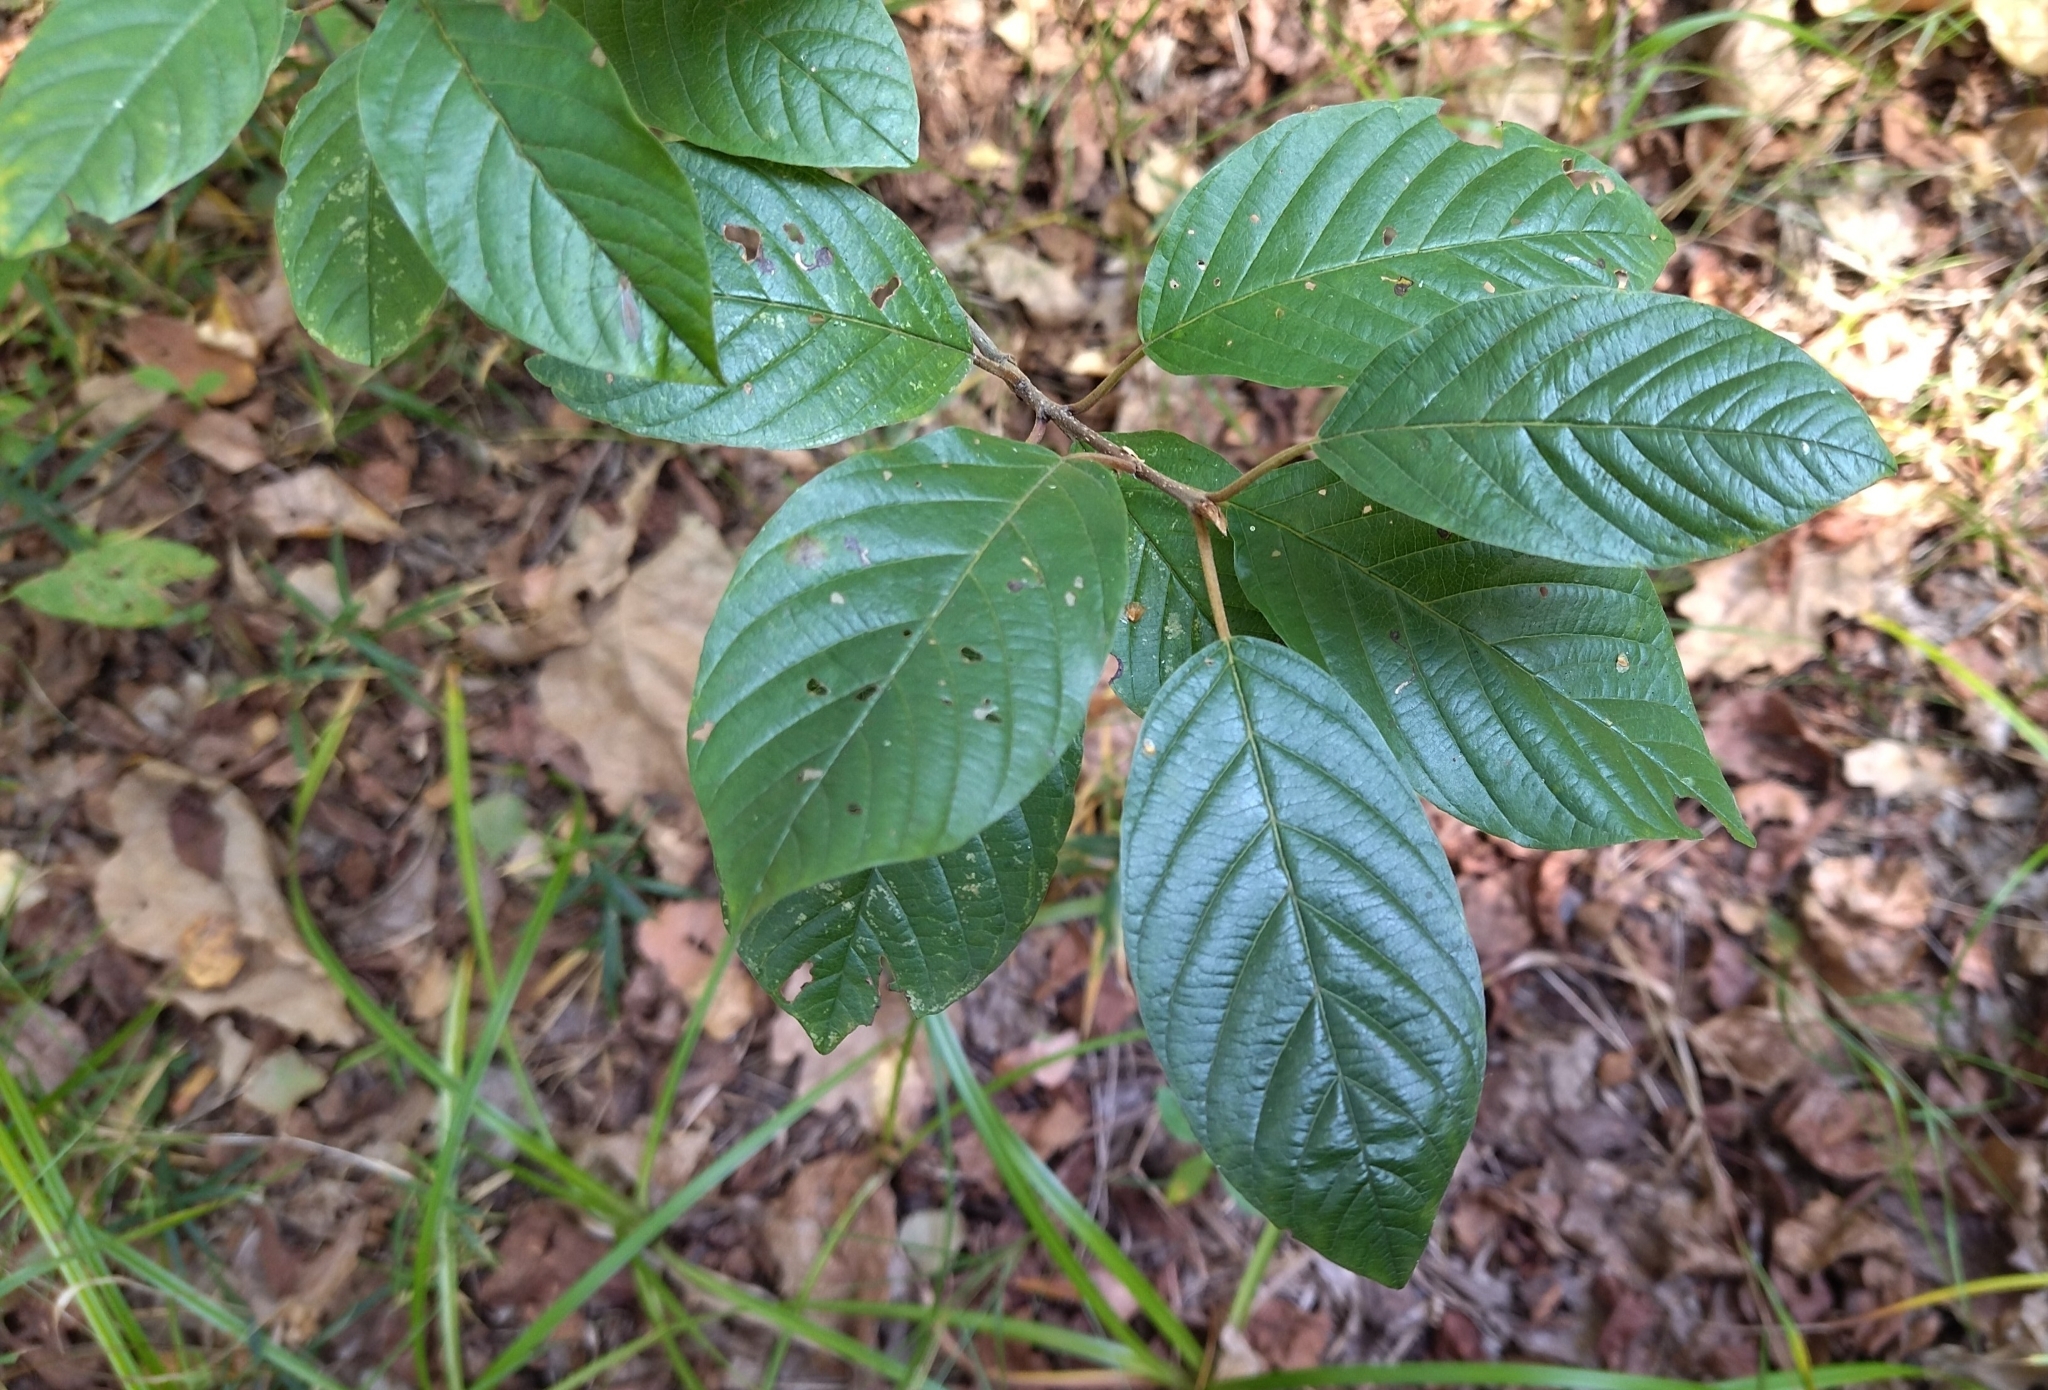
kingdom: Plantae
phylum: Tracheophyta
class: Magnoliopsida
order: Rosales
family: Rhamnaceae
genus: Frangula
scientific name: Frangula alnus
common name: Alder buckthorn
